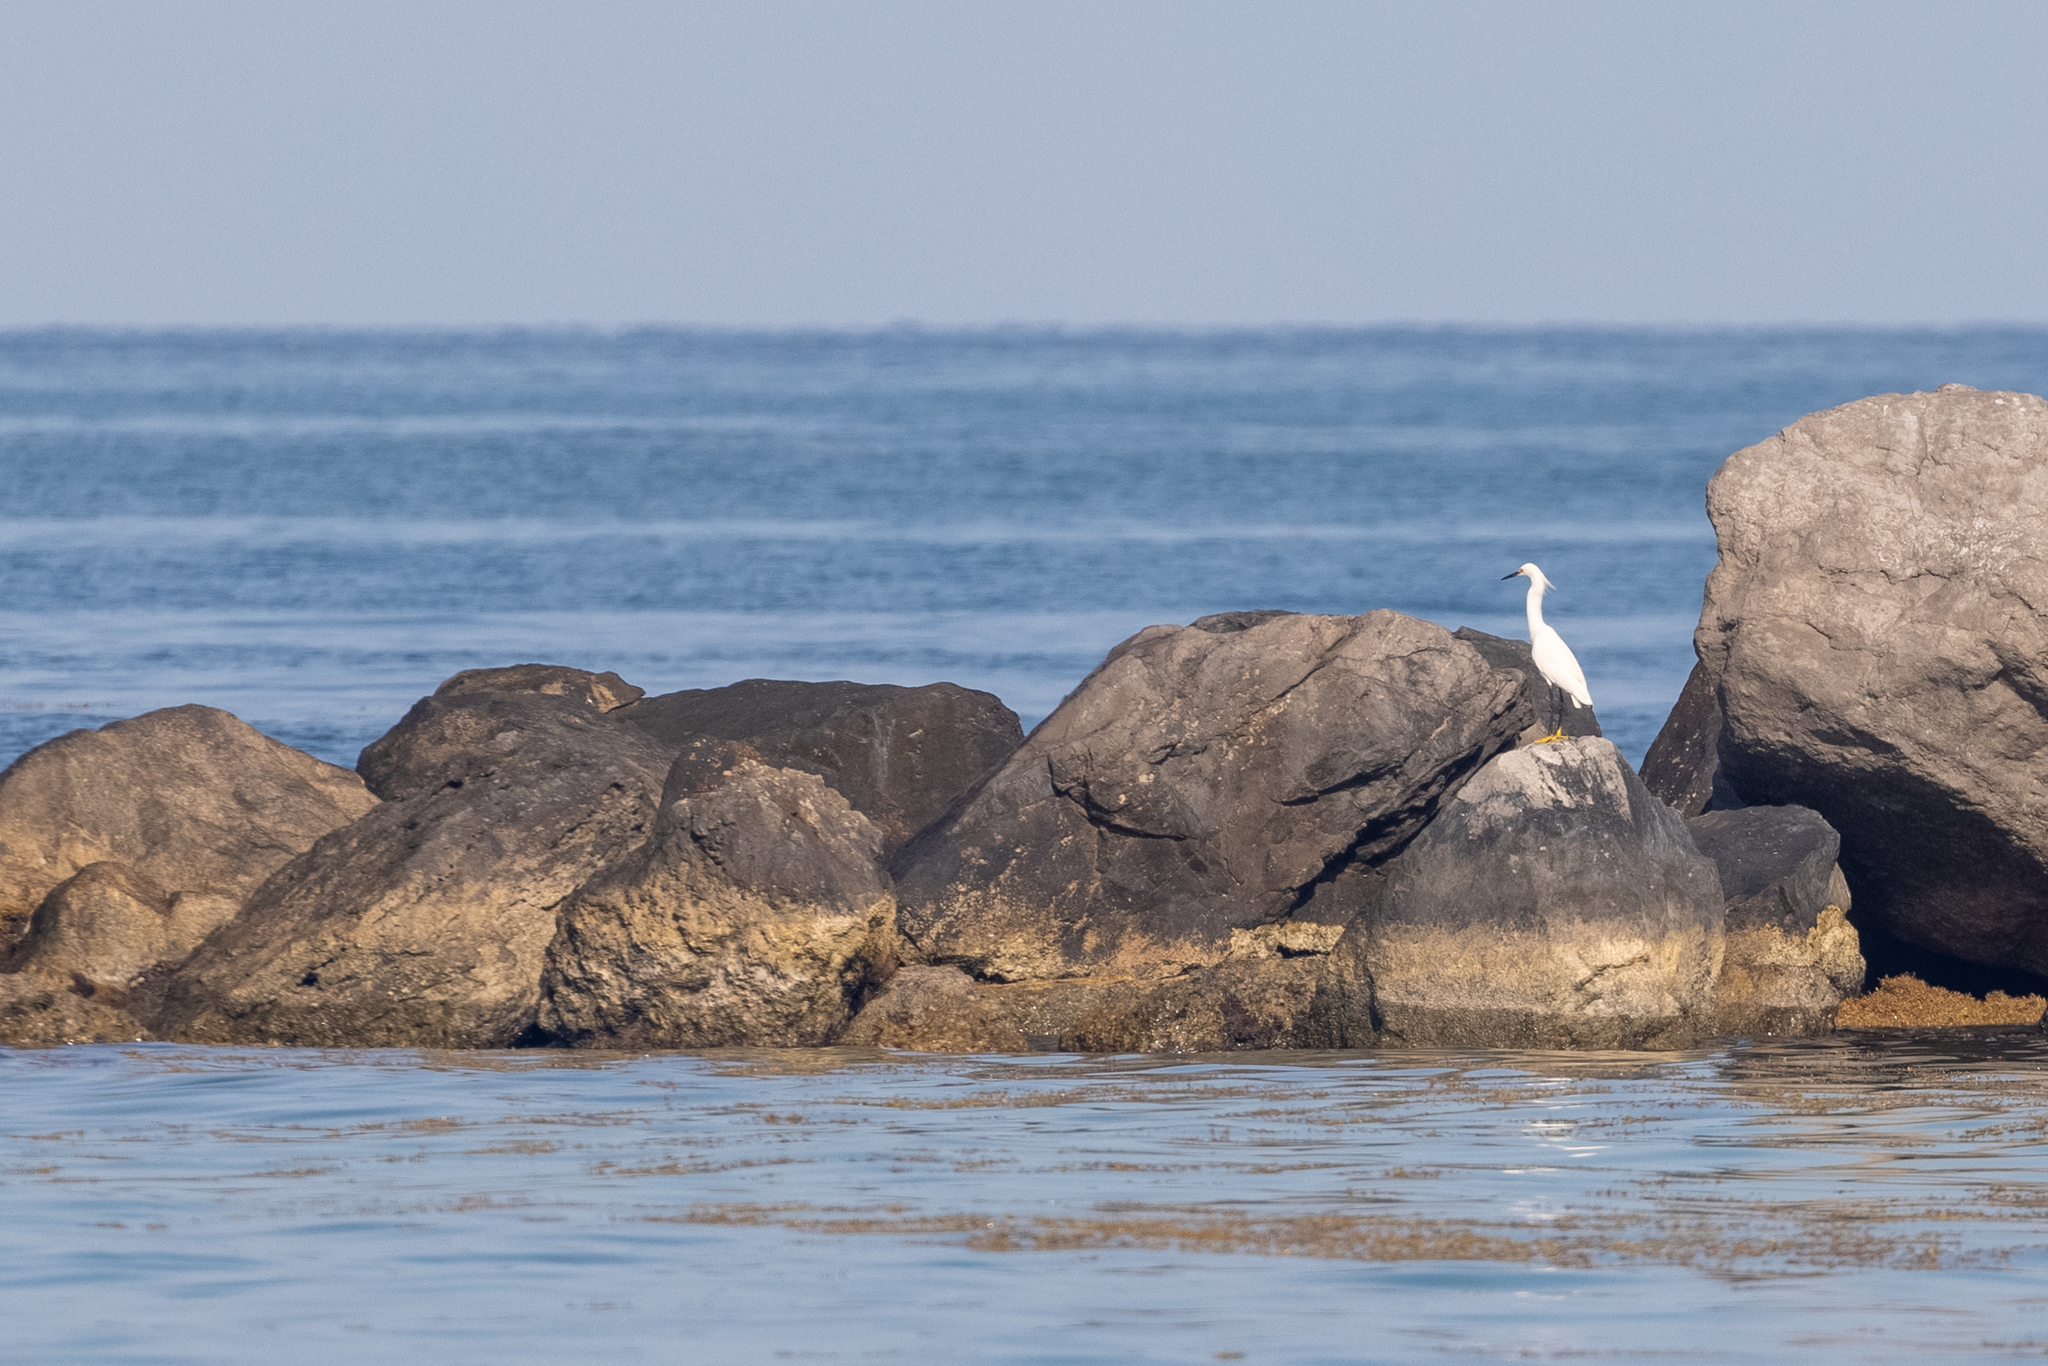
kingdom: Animalia
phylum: Chordata
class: Aves
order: Pelecaniformes
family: Ardeidae
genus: Egretta
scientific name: Egretta thula
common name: Snowy egret
